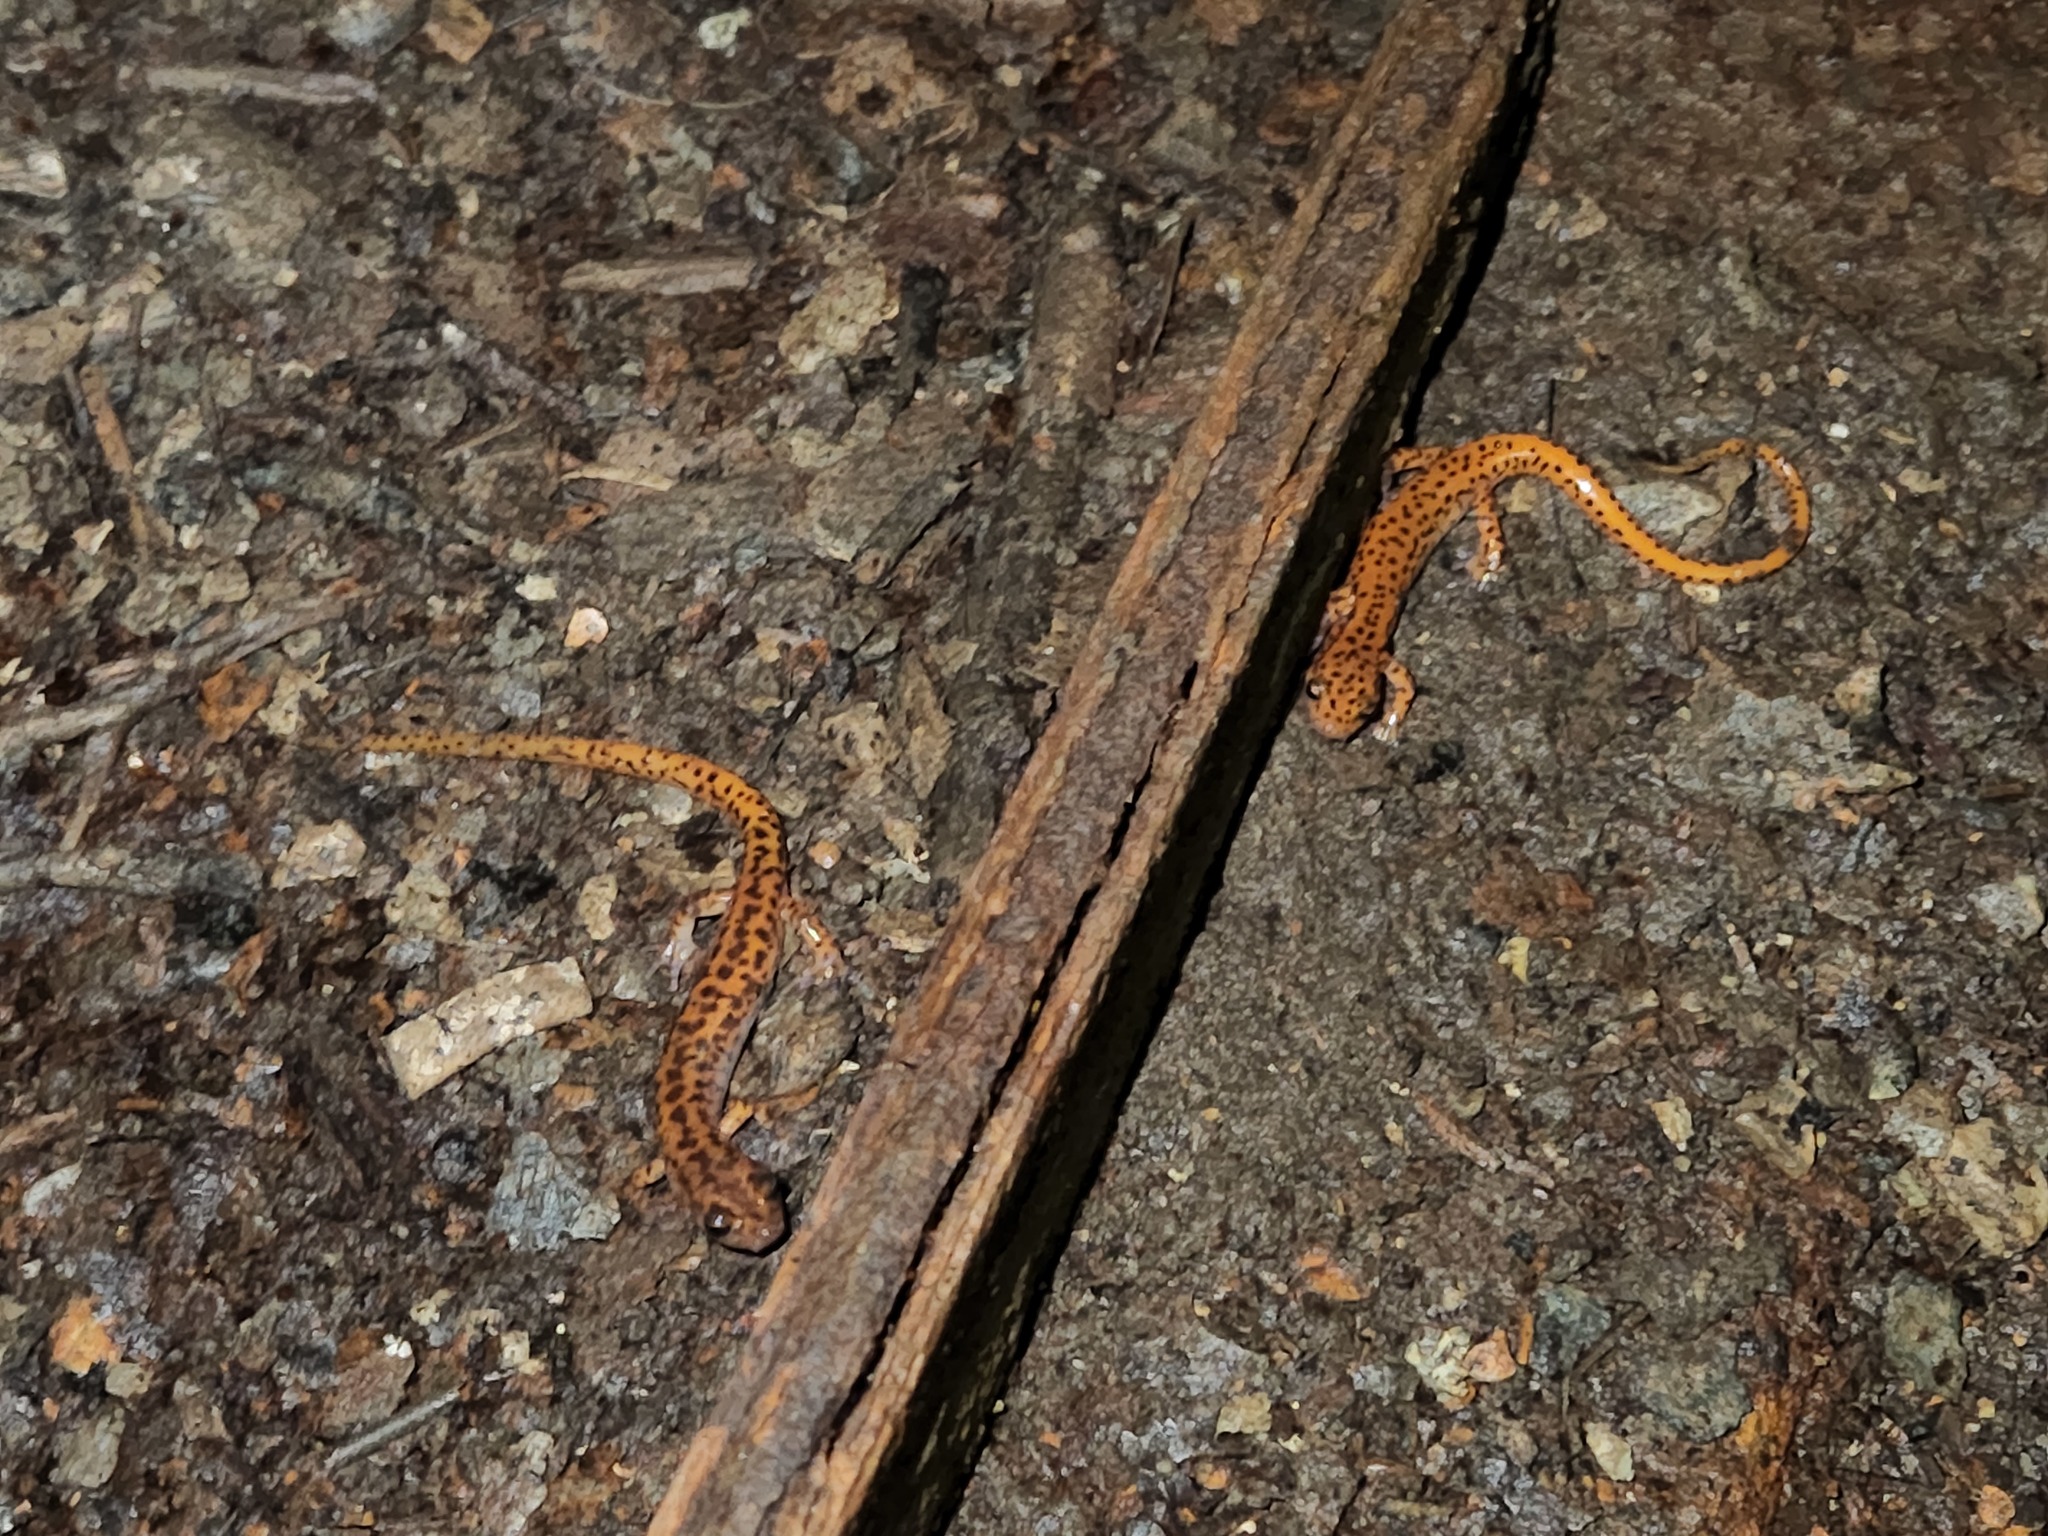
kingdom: Animalia
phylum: Chordata
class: Amphibia
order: Caudata
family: Plethodontidae
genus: Eurycea
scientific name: Eurycea lucifuga
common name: Cave salamander
